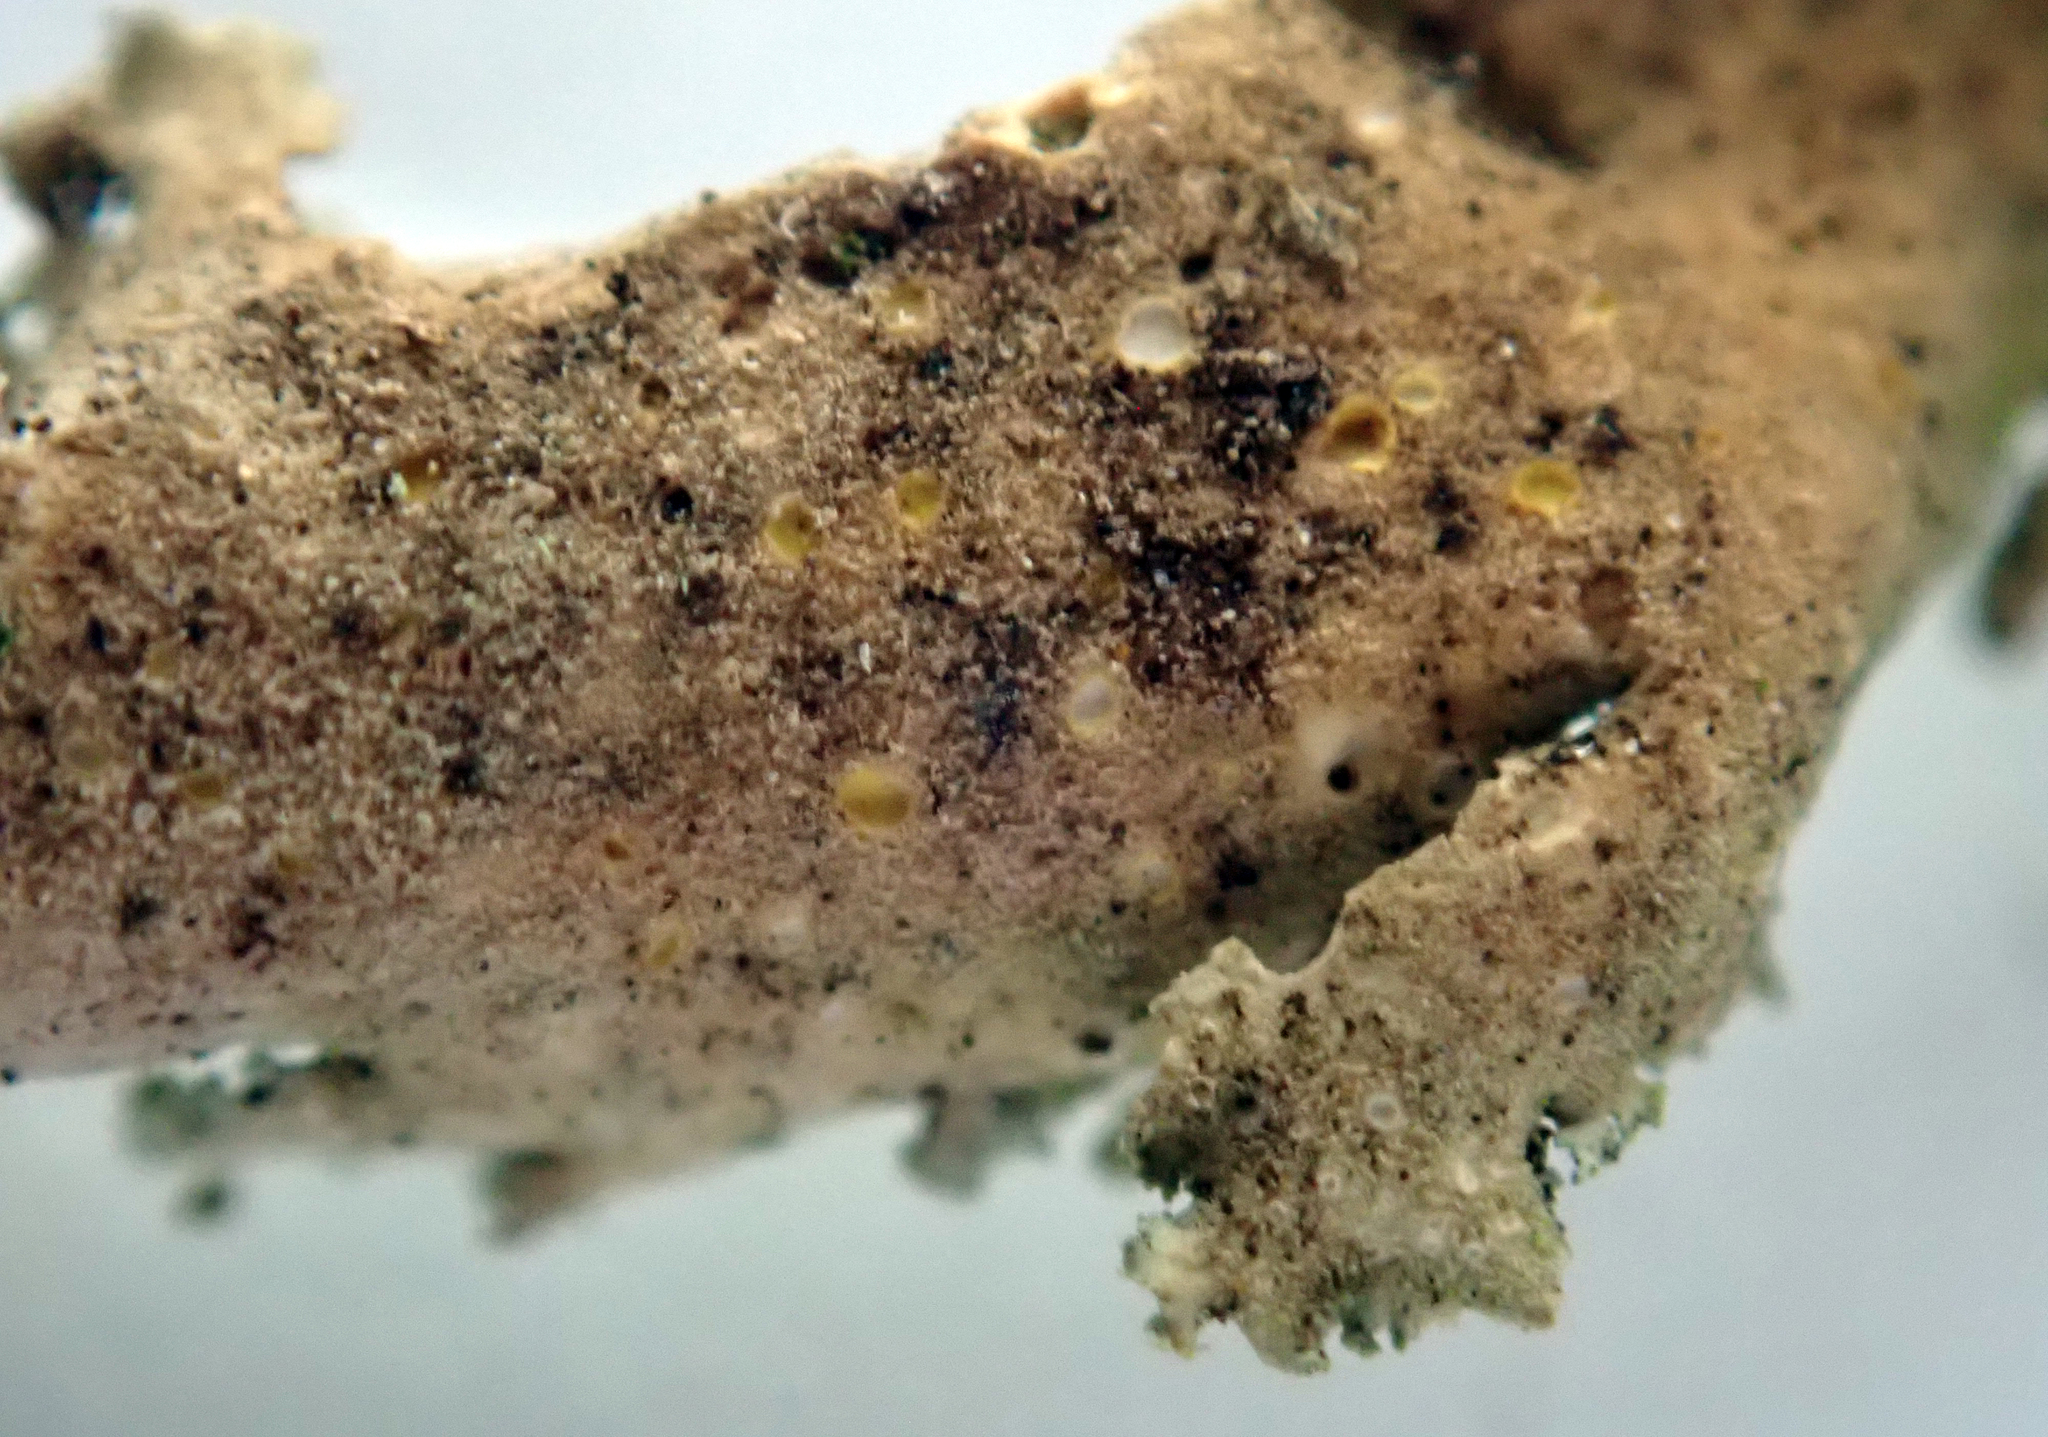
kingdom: Fungi
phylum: Ascomycota
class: Lecanoromycetes
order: Peltigerales
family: Lobariaceae
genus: Sticta
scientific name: Sticta babingtonii
